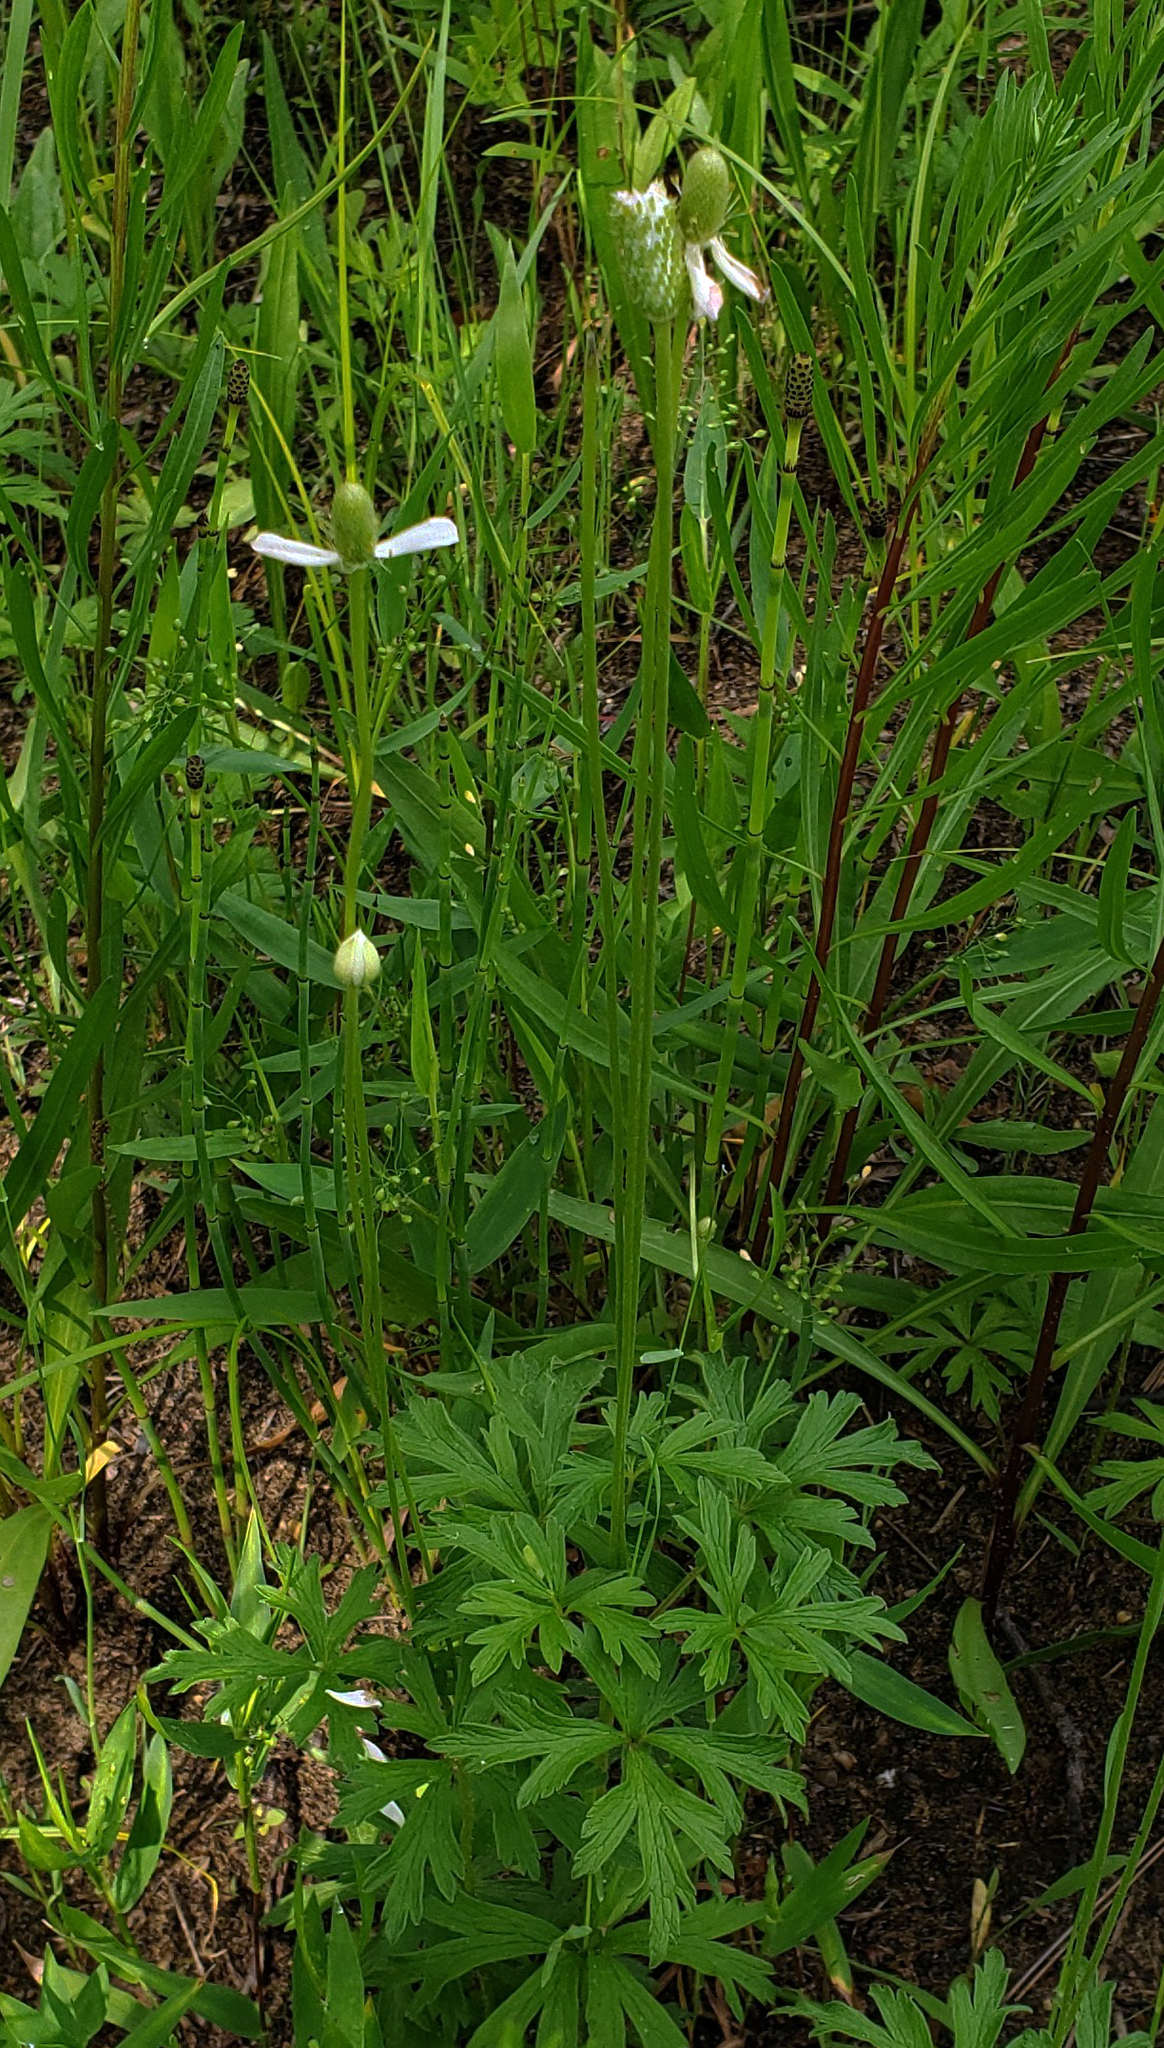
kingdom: Plantae
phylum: Tracheophyta
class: Magnoliopsida
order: Ranunculales
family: Ranunculaceae
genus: Anemone
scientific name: Anemone cylindrica
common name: Candle anemone
